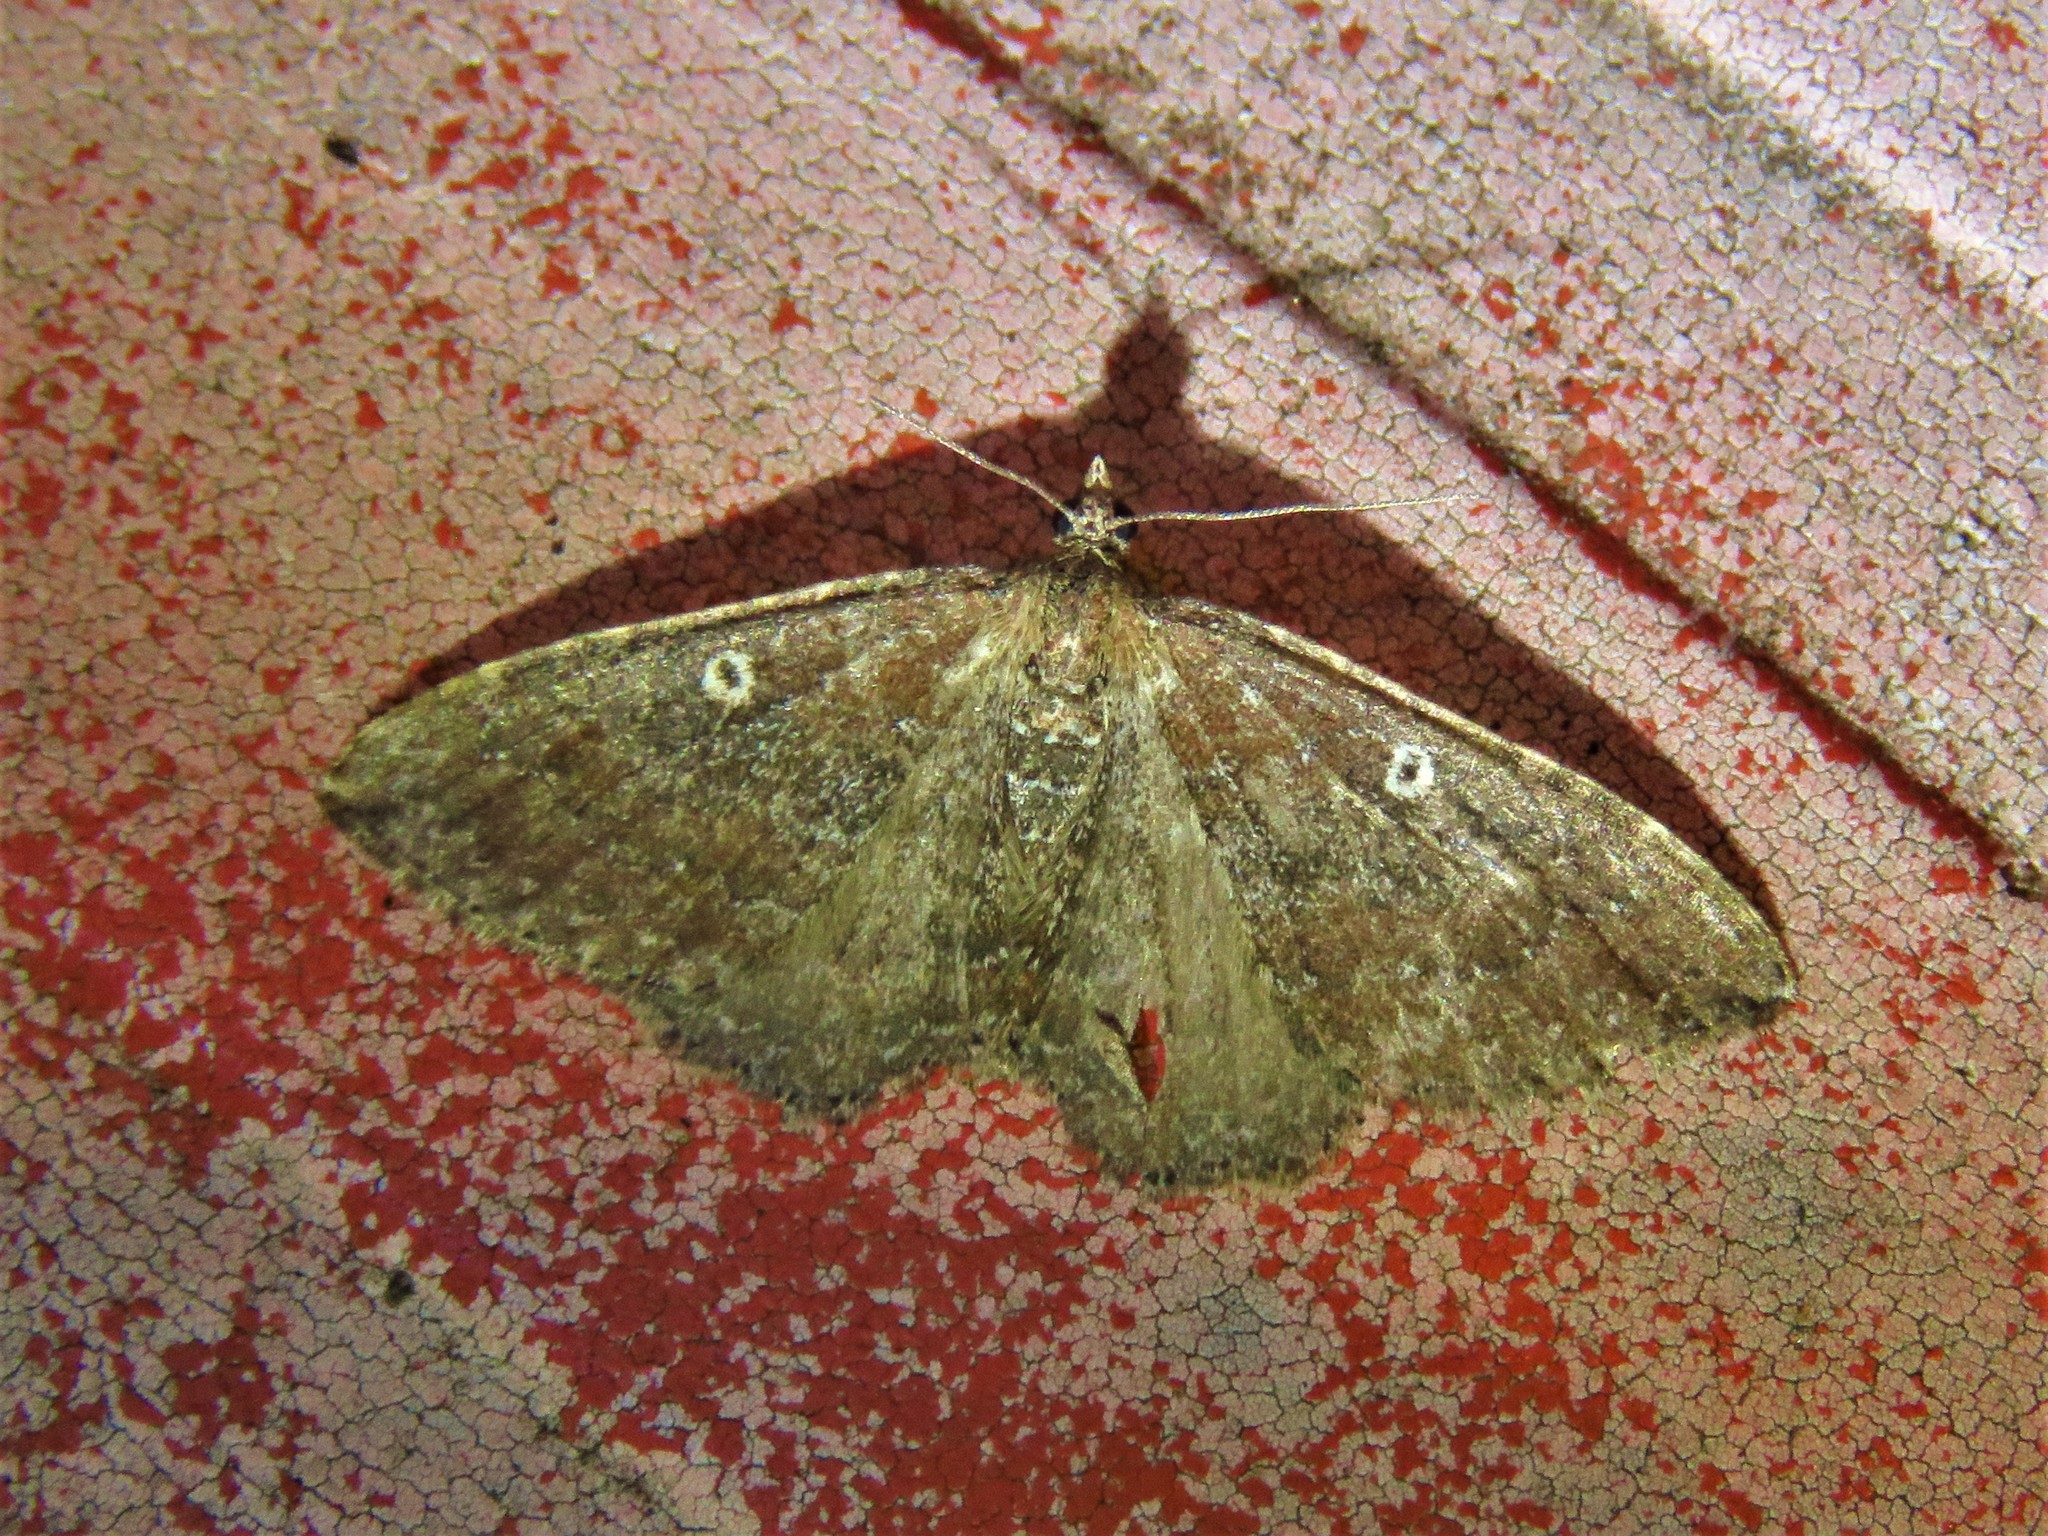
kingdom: Animalia
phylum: Arthropoda
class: Insecta
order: Lepidoptera
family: Geometridae
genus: Orthonama
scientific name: Orthonama obstipata
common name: The gem
